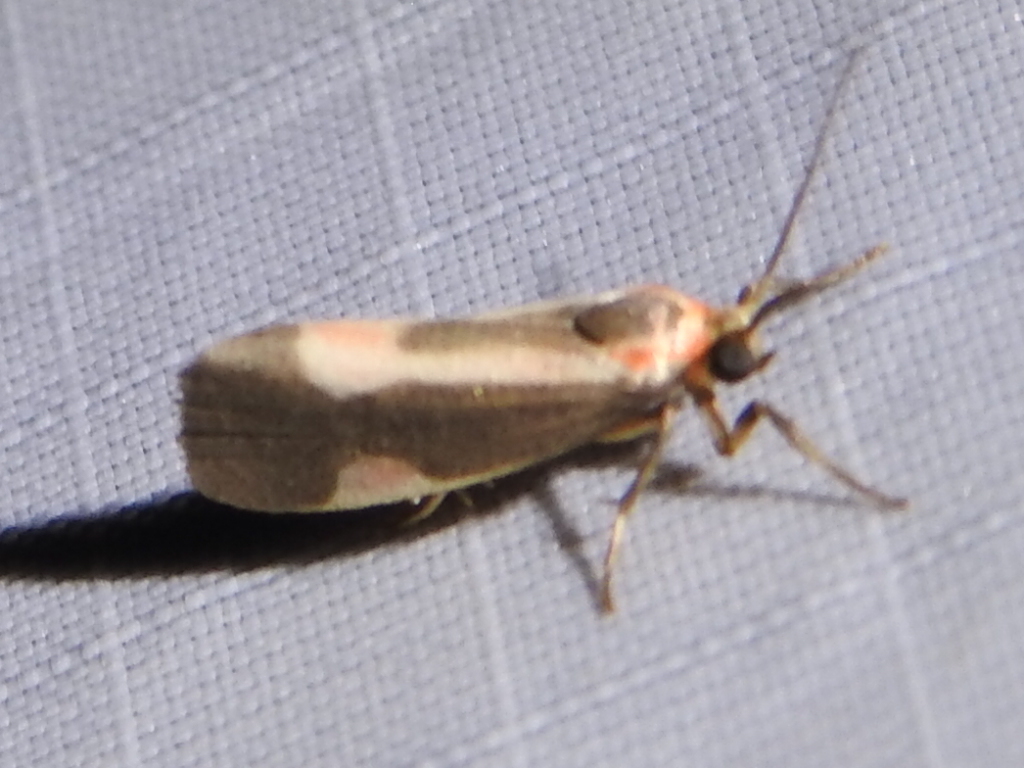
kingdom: Animalia
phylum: Arthropoda
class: Insecta
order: Lepidoptera
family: Erebidae
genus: Cisthene
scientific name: Cisthene packardii
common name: Packard's lichen moth
